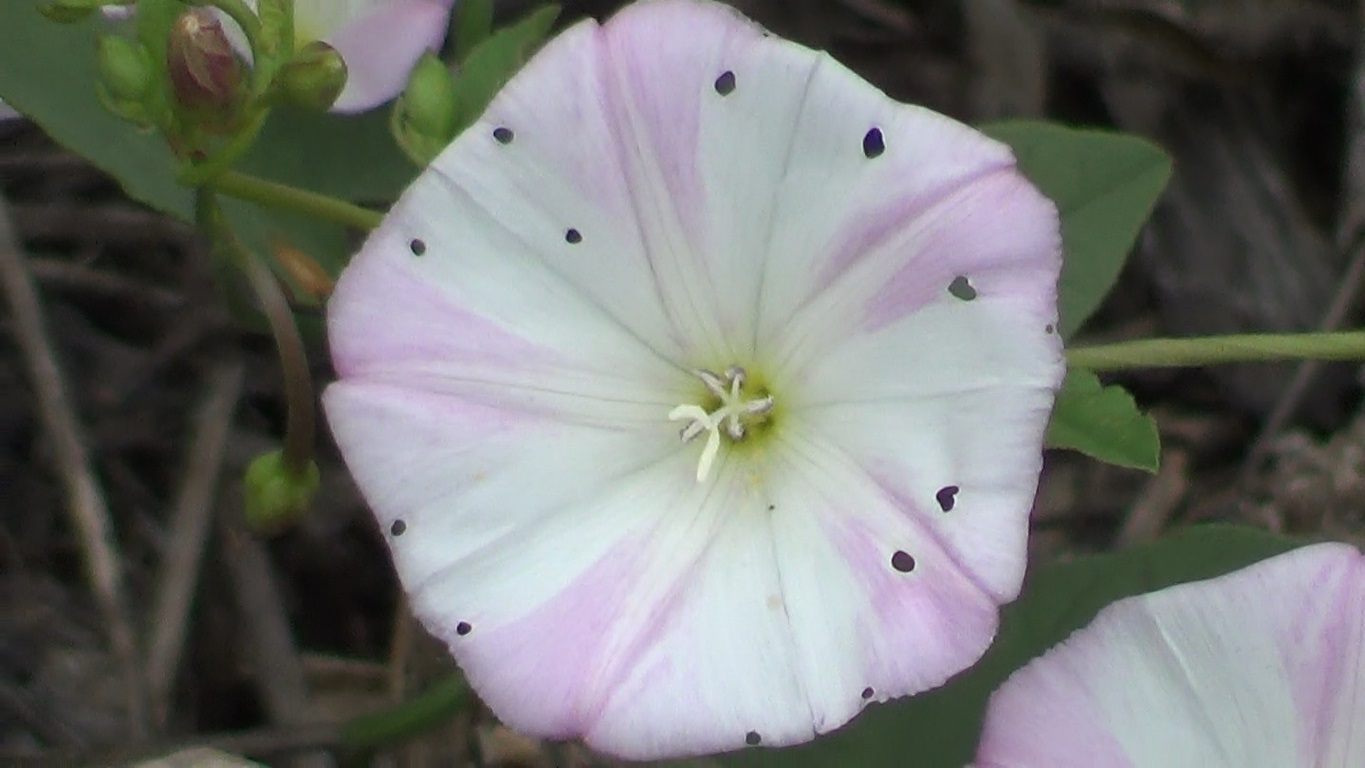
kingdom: Plantae
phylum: Tracheophyta
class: Magnoliopsida
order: Solanales
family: Convolvulaceae
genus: Convolvulus
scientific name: Convolvulus arvensis
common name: Field bindweed
